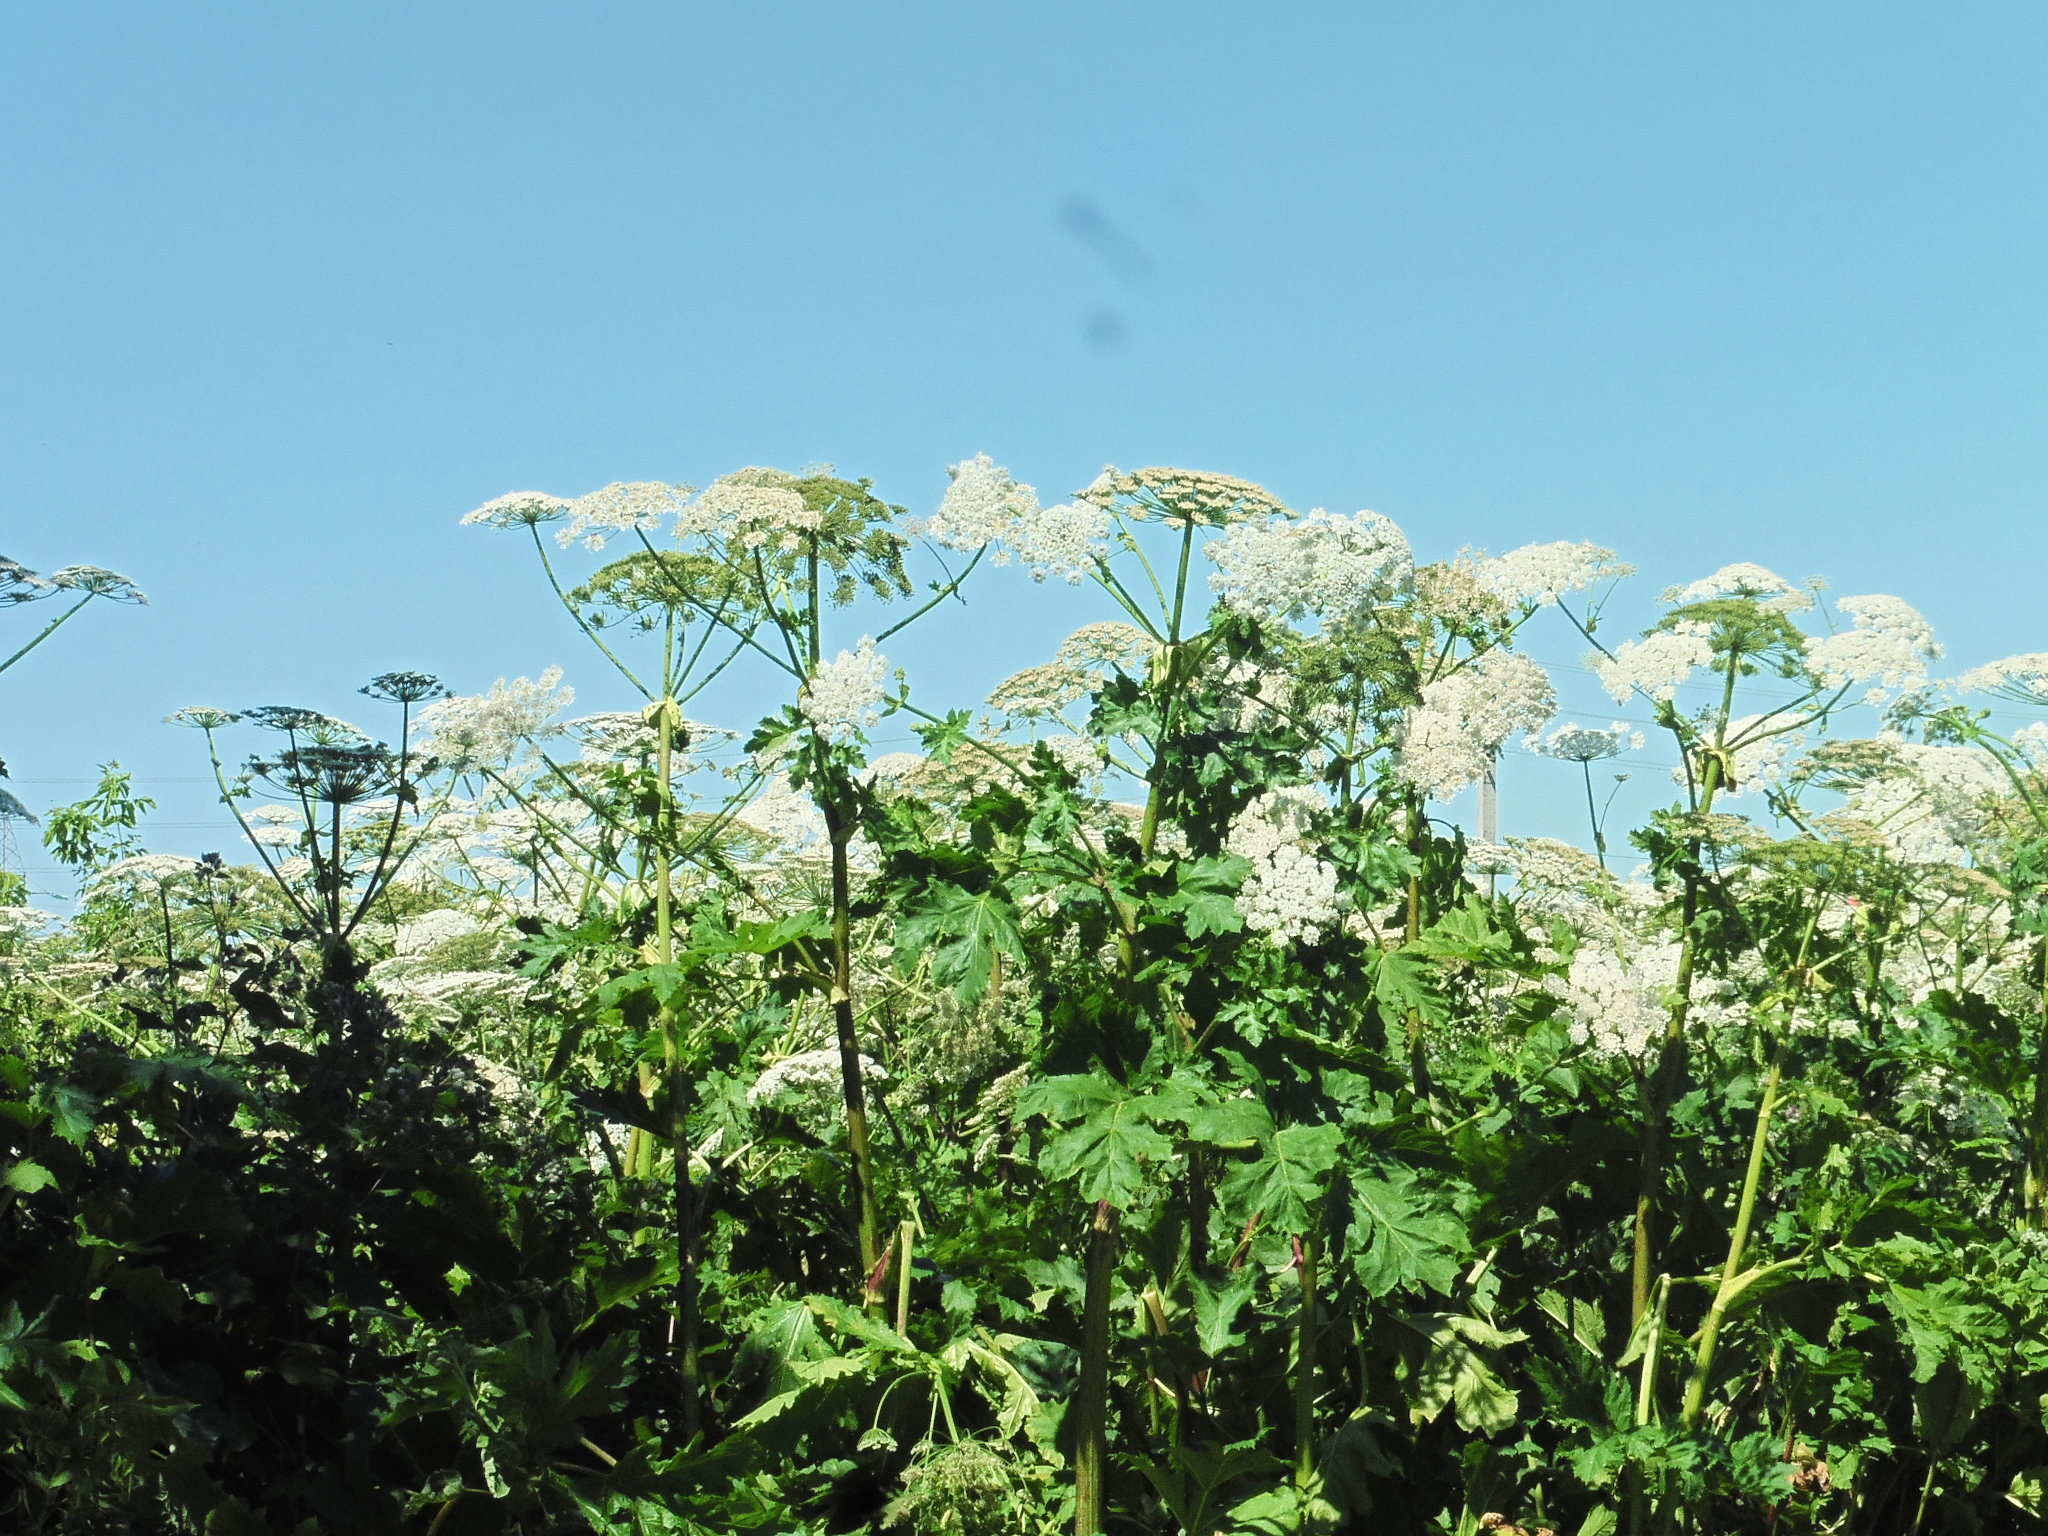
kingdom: Plantae
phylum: Tracheophyta
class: Magnoliopsida
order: Apiales
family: Apiaceae
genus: Heracleum
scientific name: Heracleum sosnowskyi
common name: Sosnowsky's hogweed
